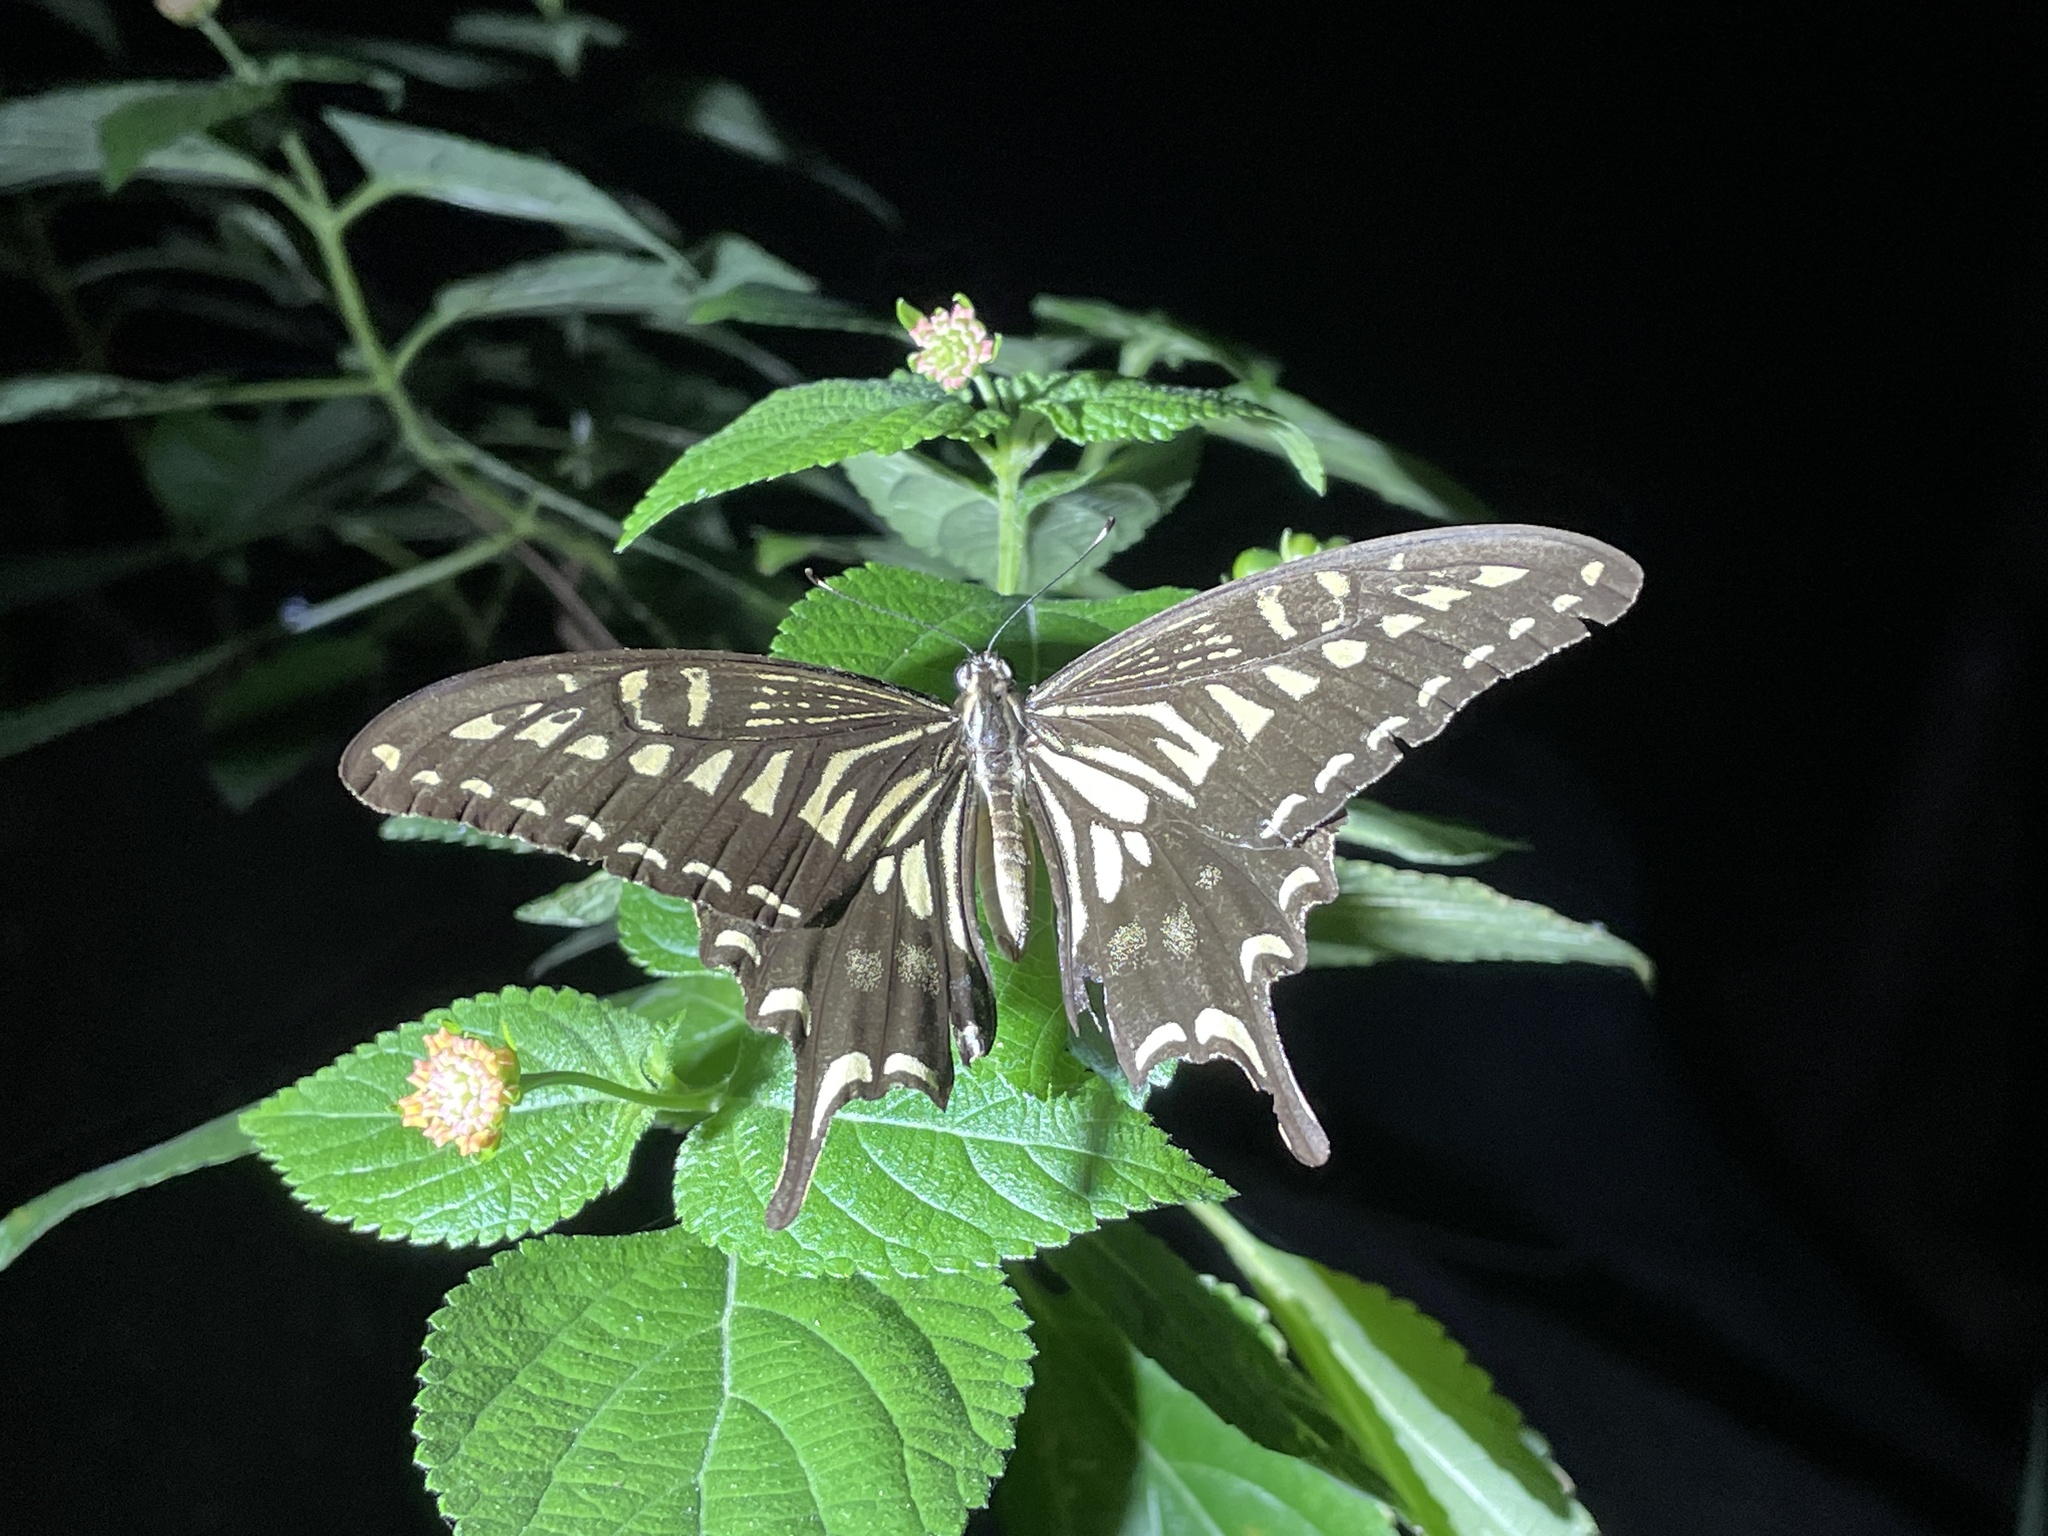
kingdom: Animalia
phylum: Arthropoda
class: Insecta
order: Lepidoptera
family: Papilionidae
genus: Papilio
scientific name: Papilio xuthus
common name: Asian swallowtail
